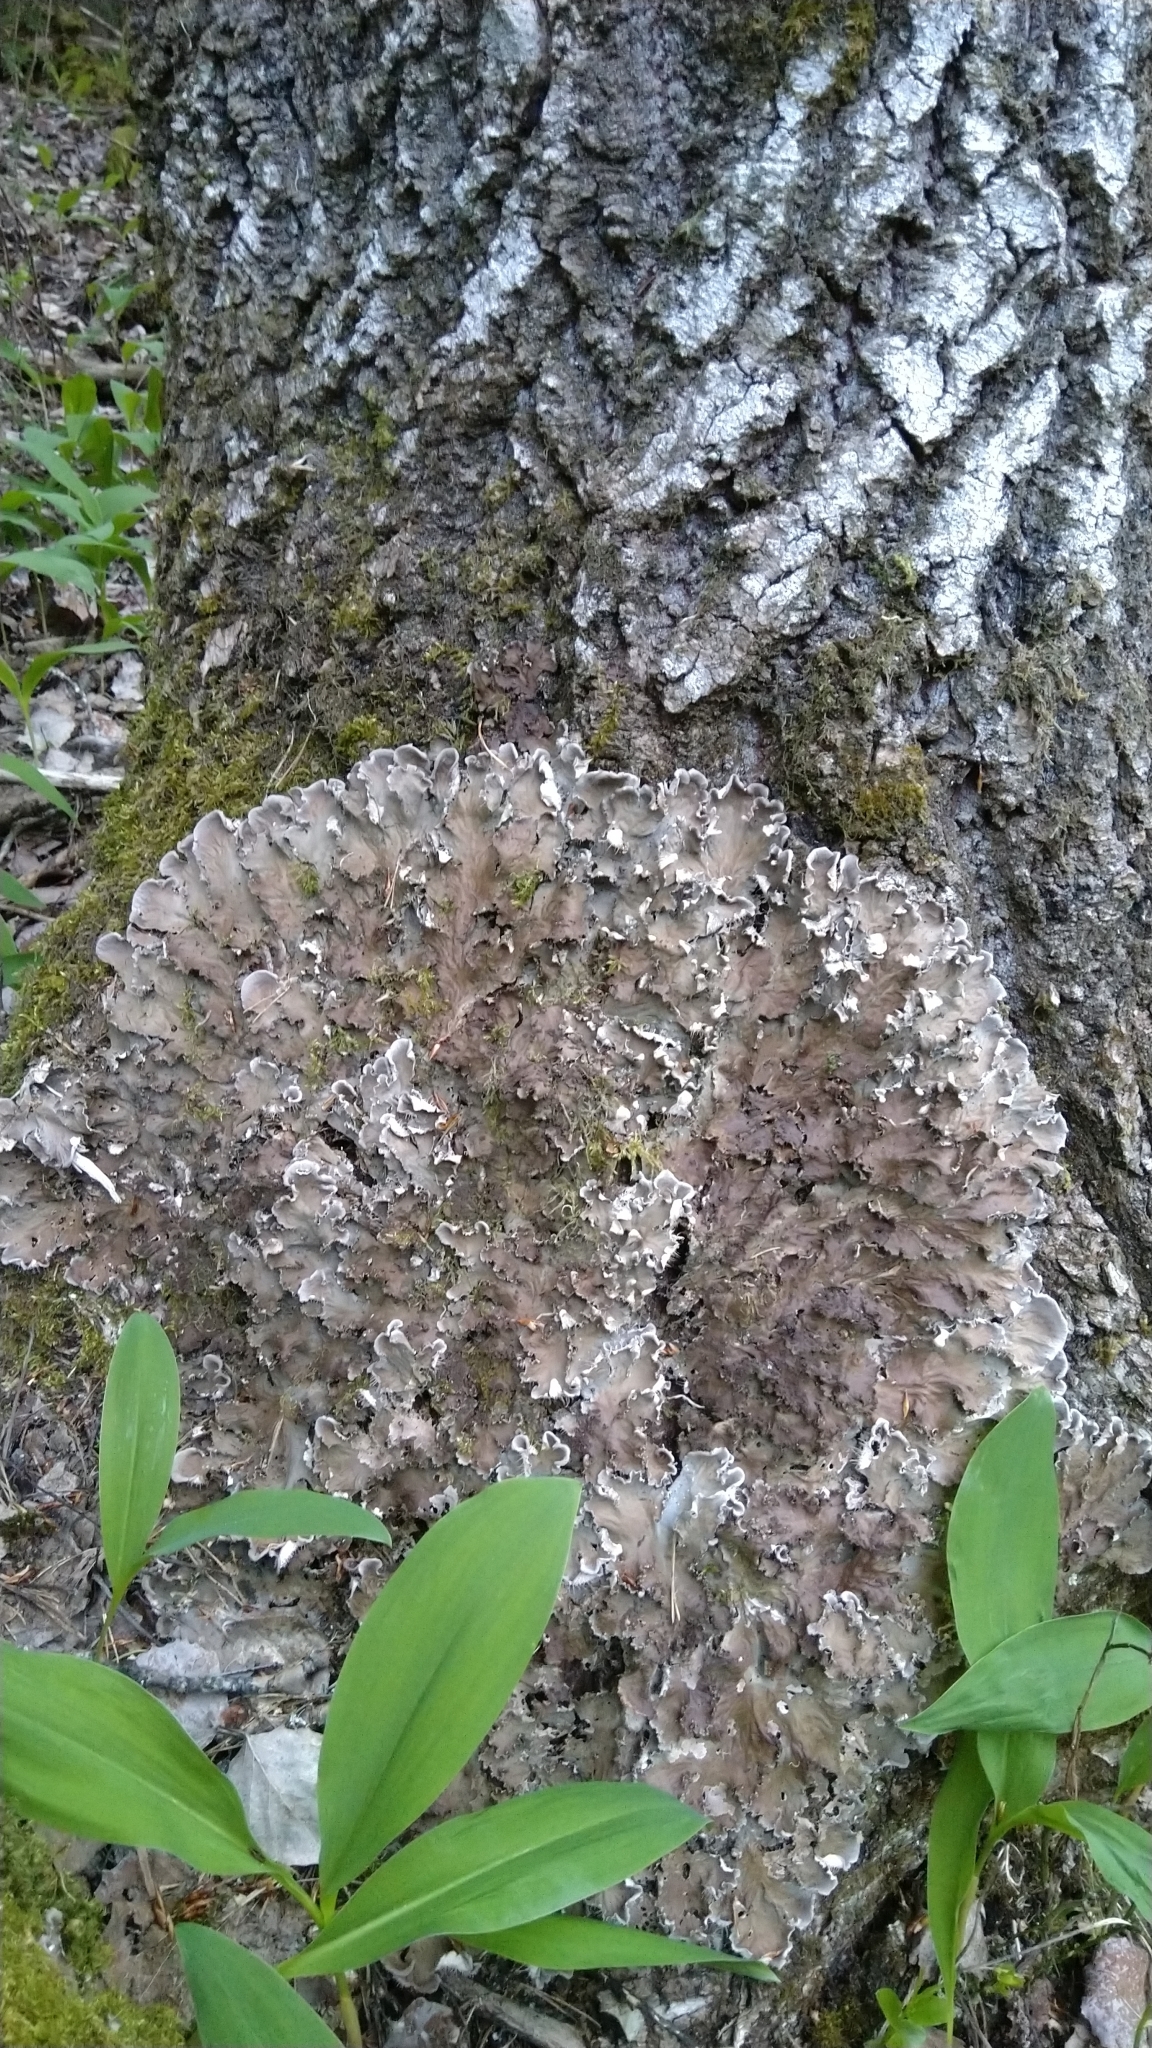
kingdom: Fungi
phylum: Ascomycota
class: Lecanoromycetes
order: Peltigerales
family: Peltigeraceae
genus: Peltigera
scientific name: Peltigera praetextata
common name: Scaly dog-lichen
